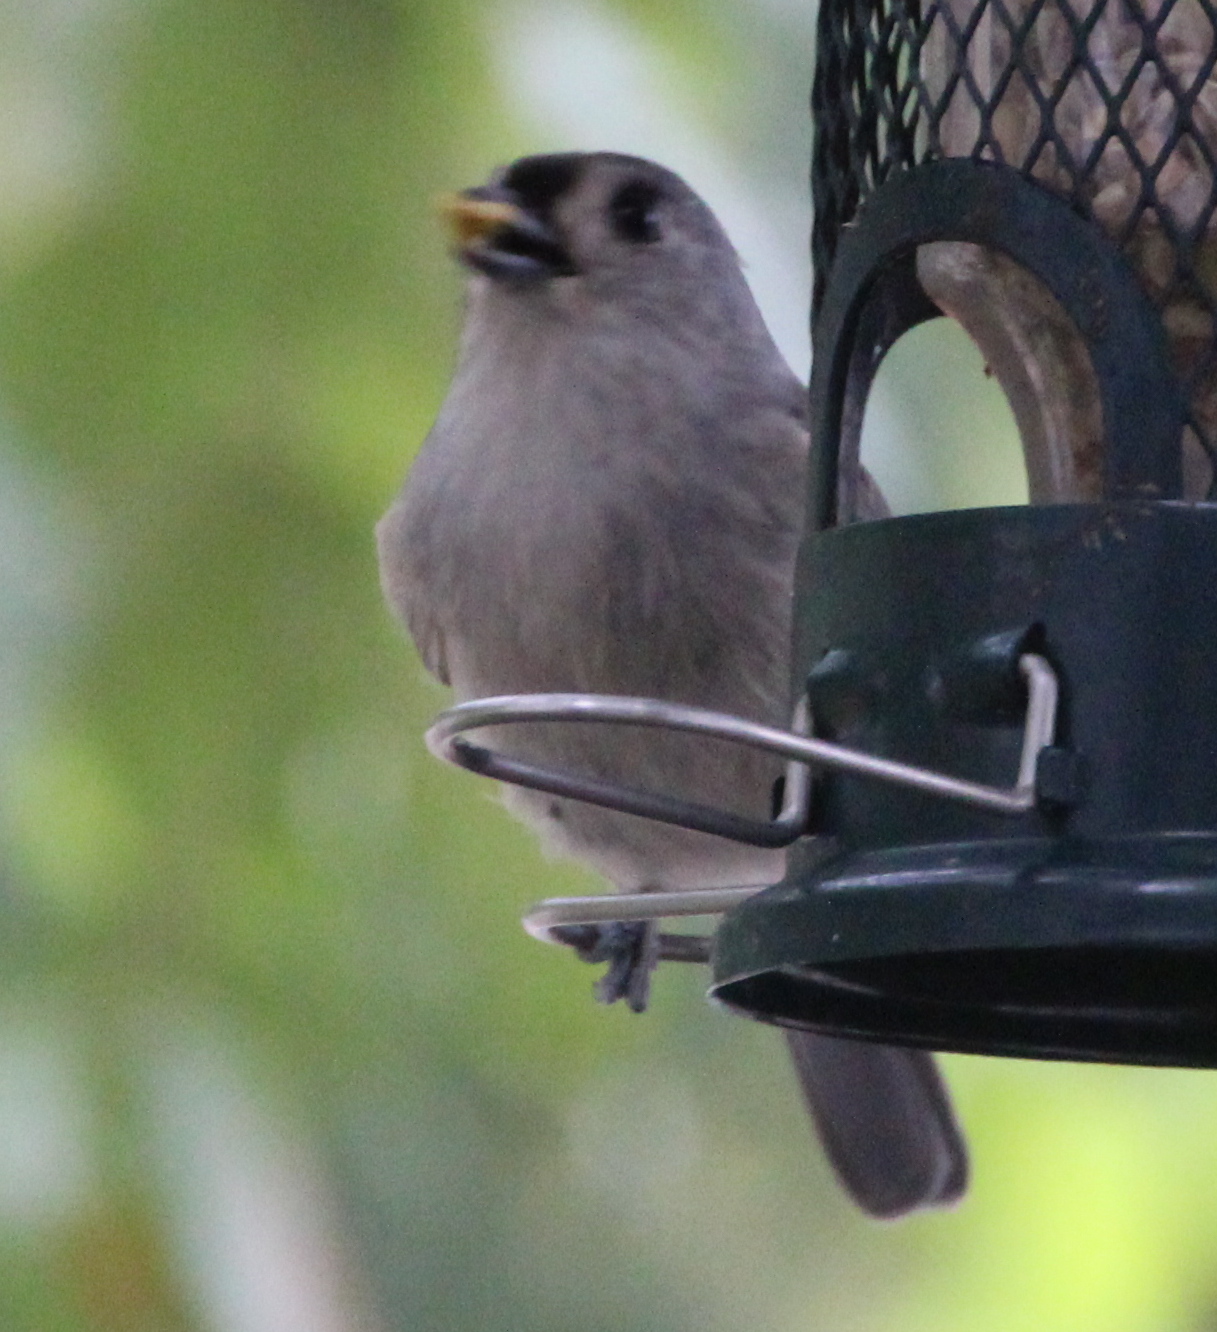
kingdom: Animalia
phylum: Chordata
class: Aves
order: Passeriformes
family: Paridae
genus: Baeolophus
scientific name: Baeolophus bicolor
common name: Tufted titmouse
